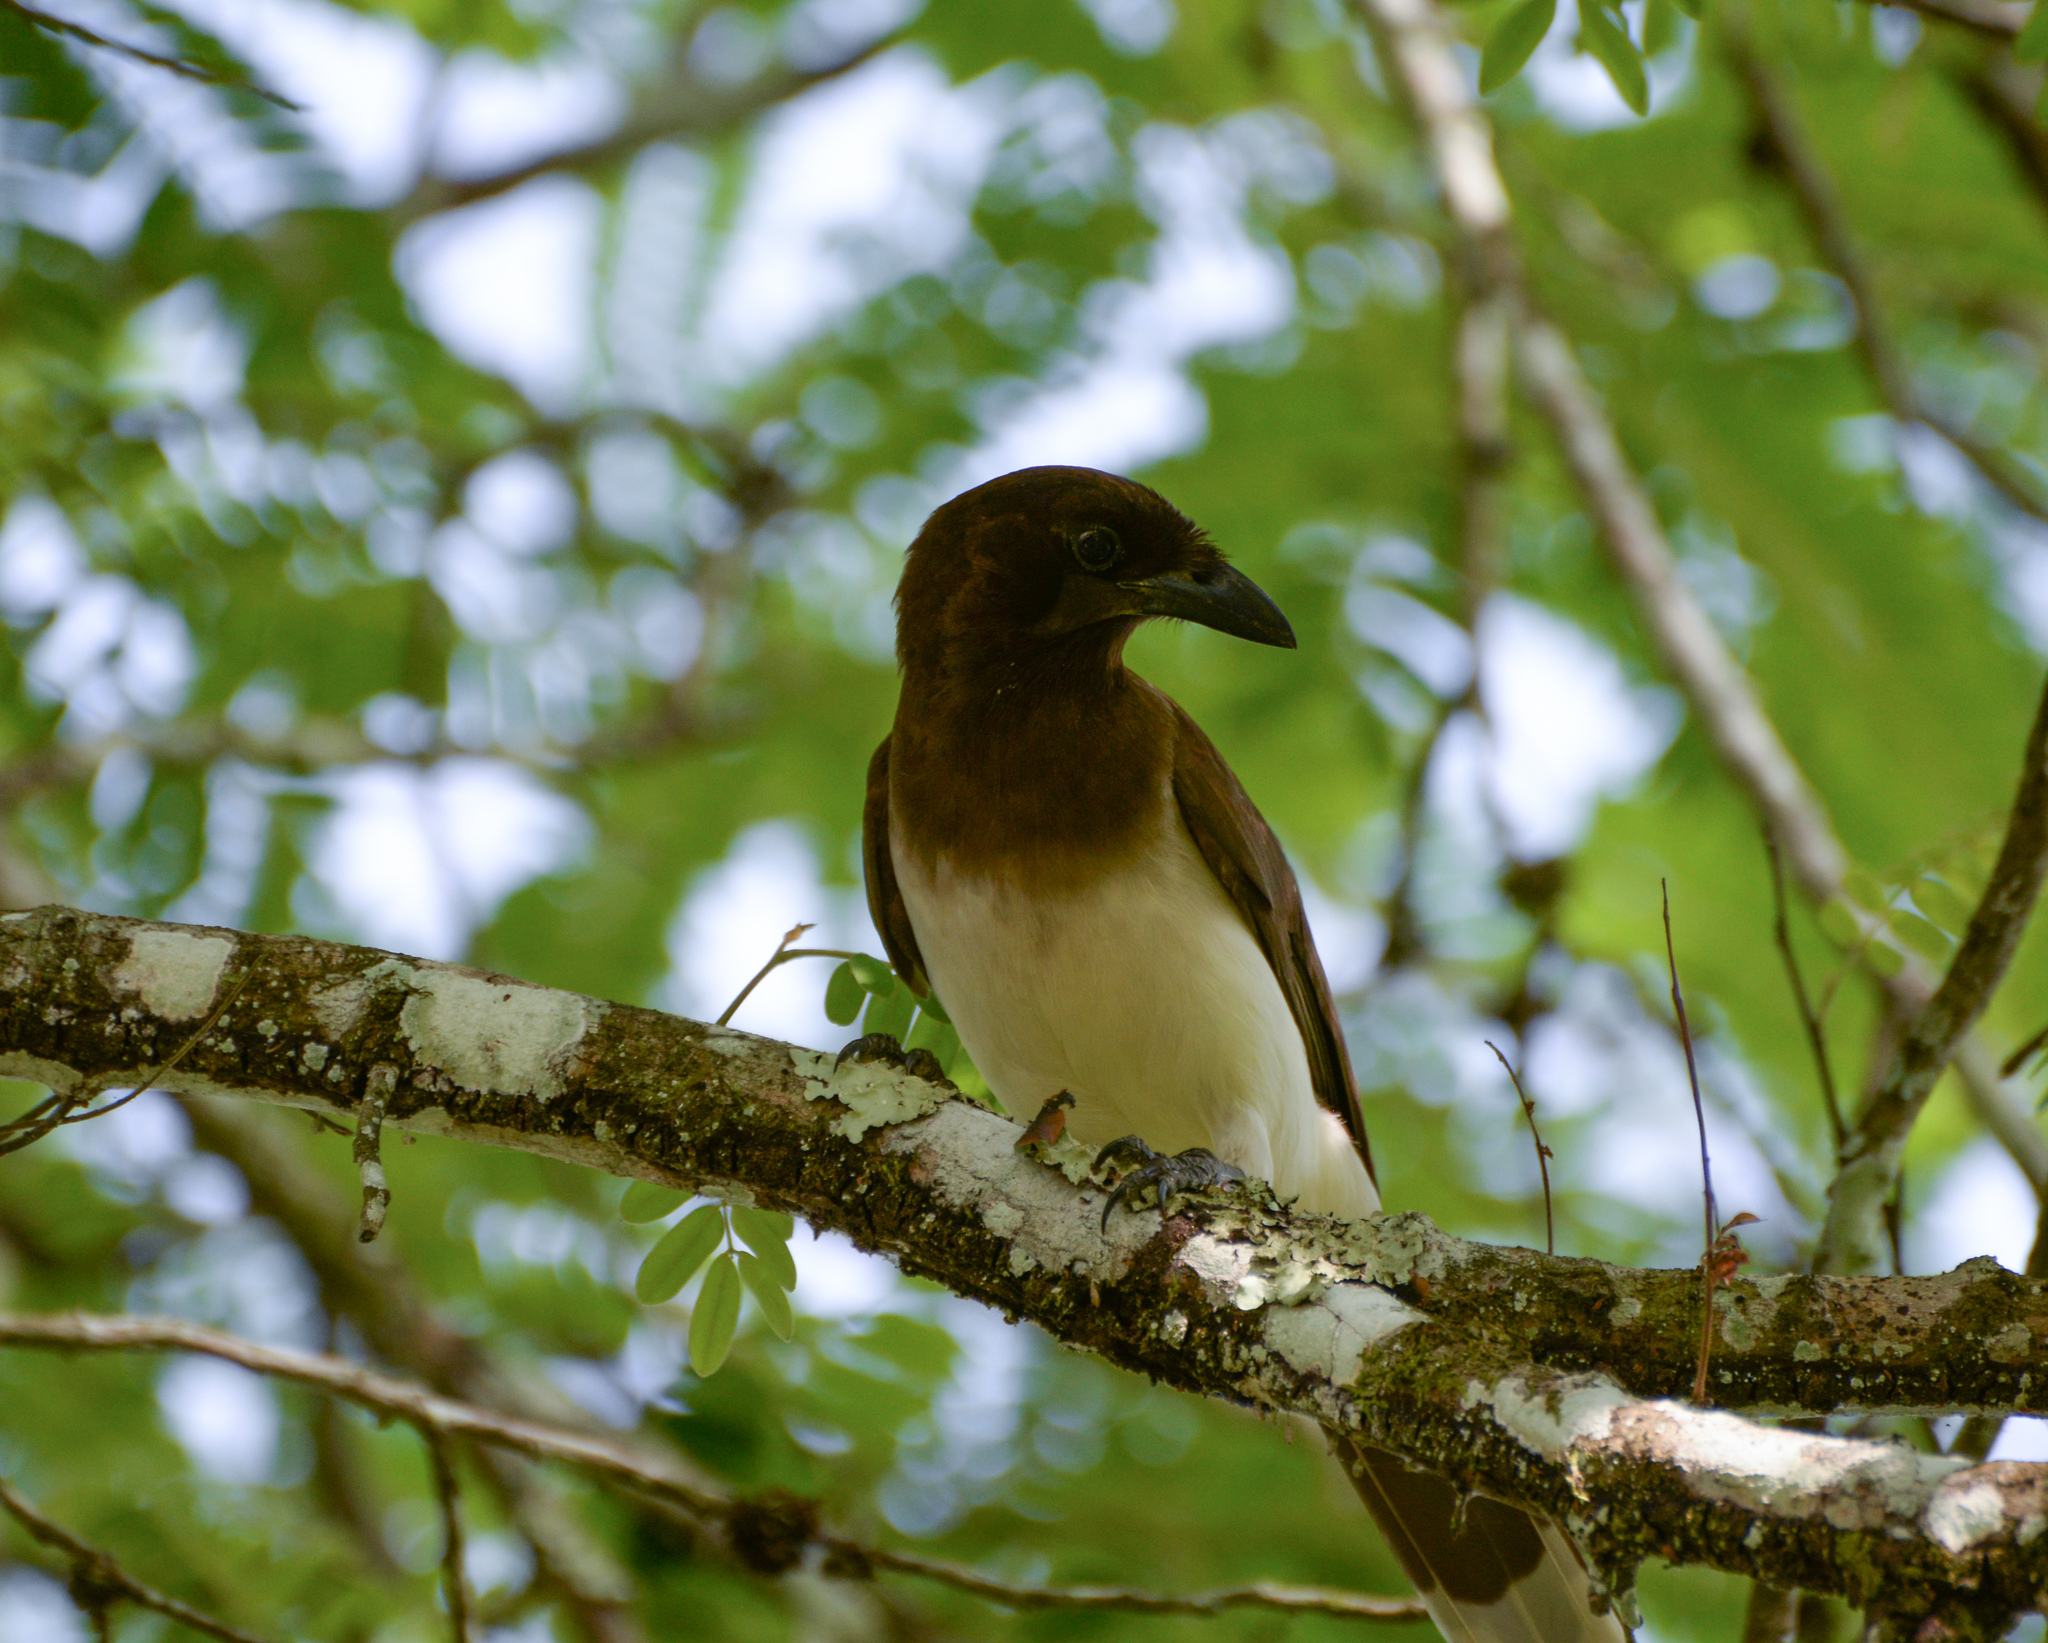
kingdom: Animalia
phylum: Chordata
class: Aves
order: Passeriformes
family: Corvidae
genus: Psilorhinus
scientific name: Psilorhinus morio
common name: Brown jay
